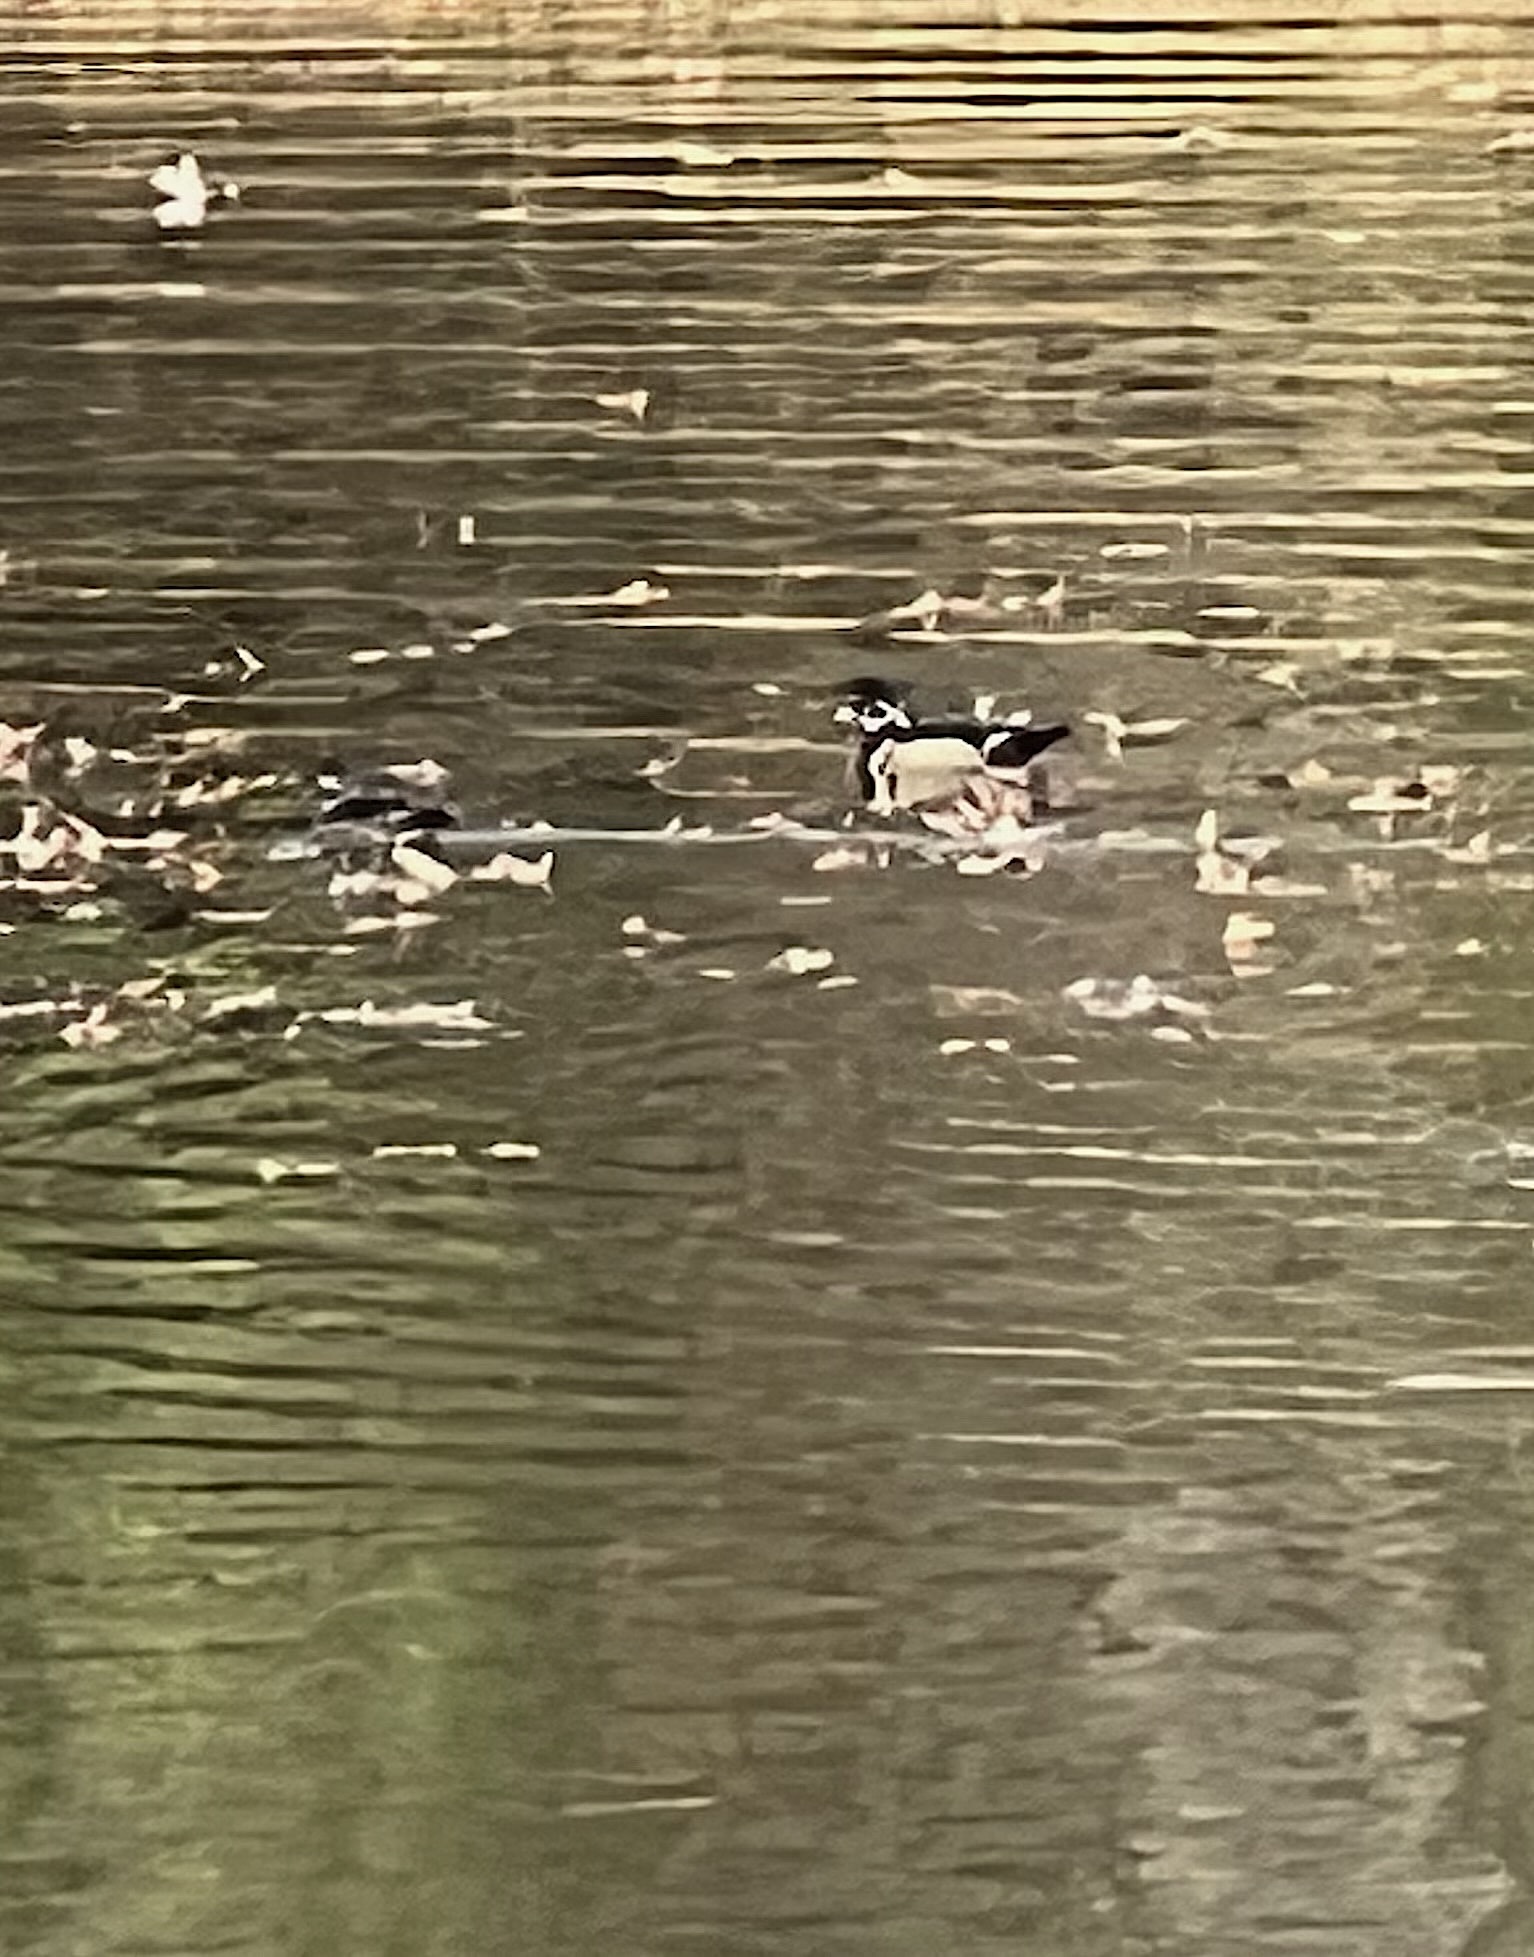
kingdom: Animalia
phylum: Chordata
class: Aves
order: Anseriformes
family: Anatidae
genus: Aix
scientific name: Aix sponsa
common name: Wood duck
